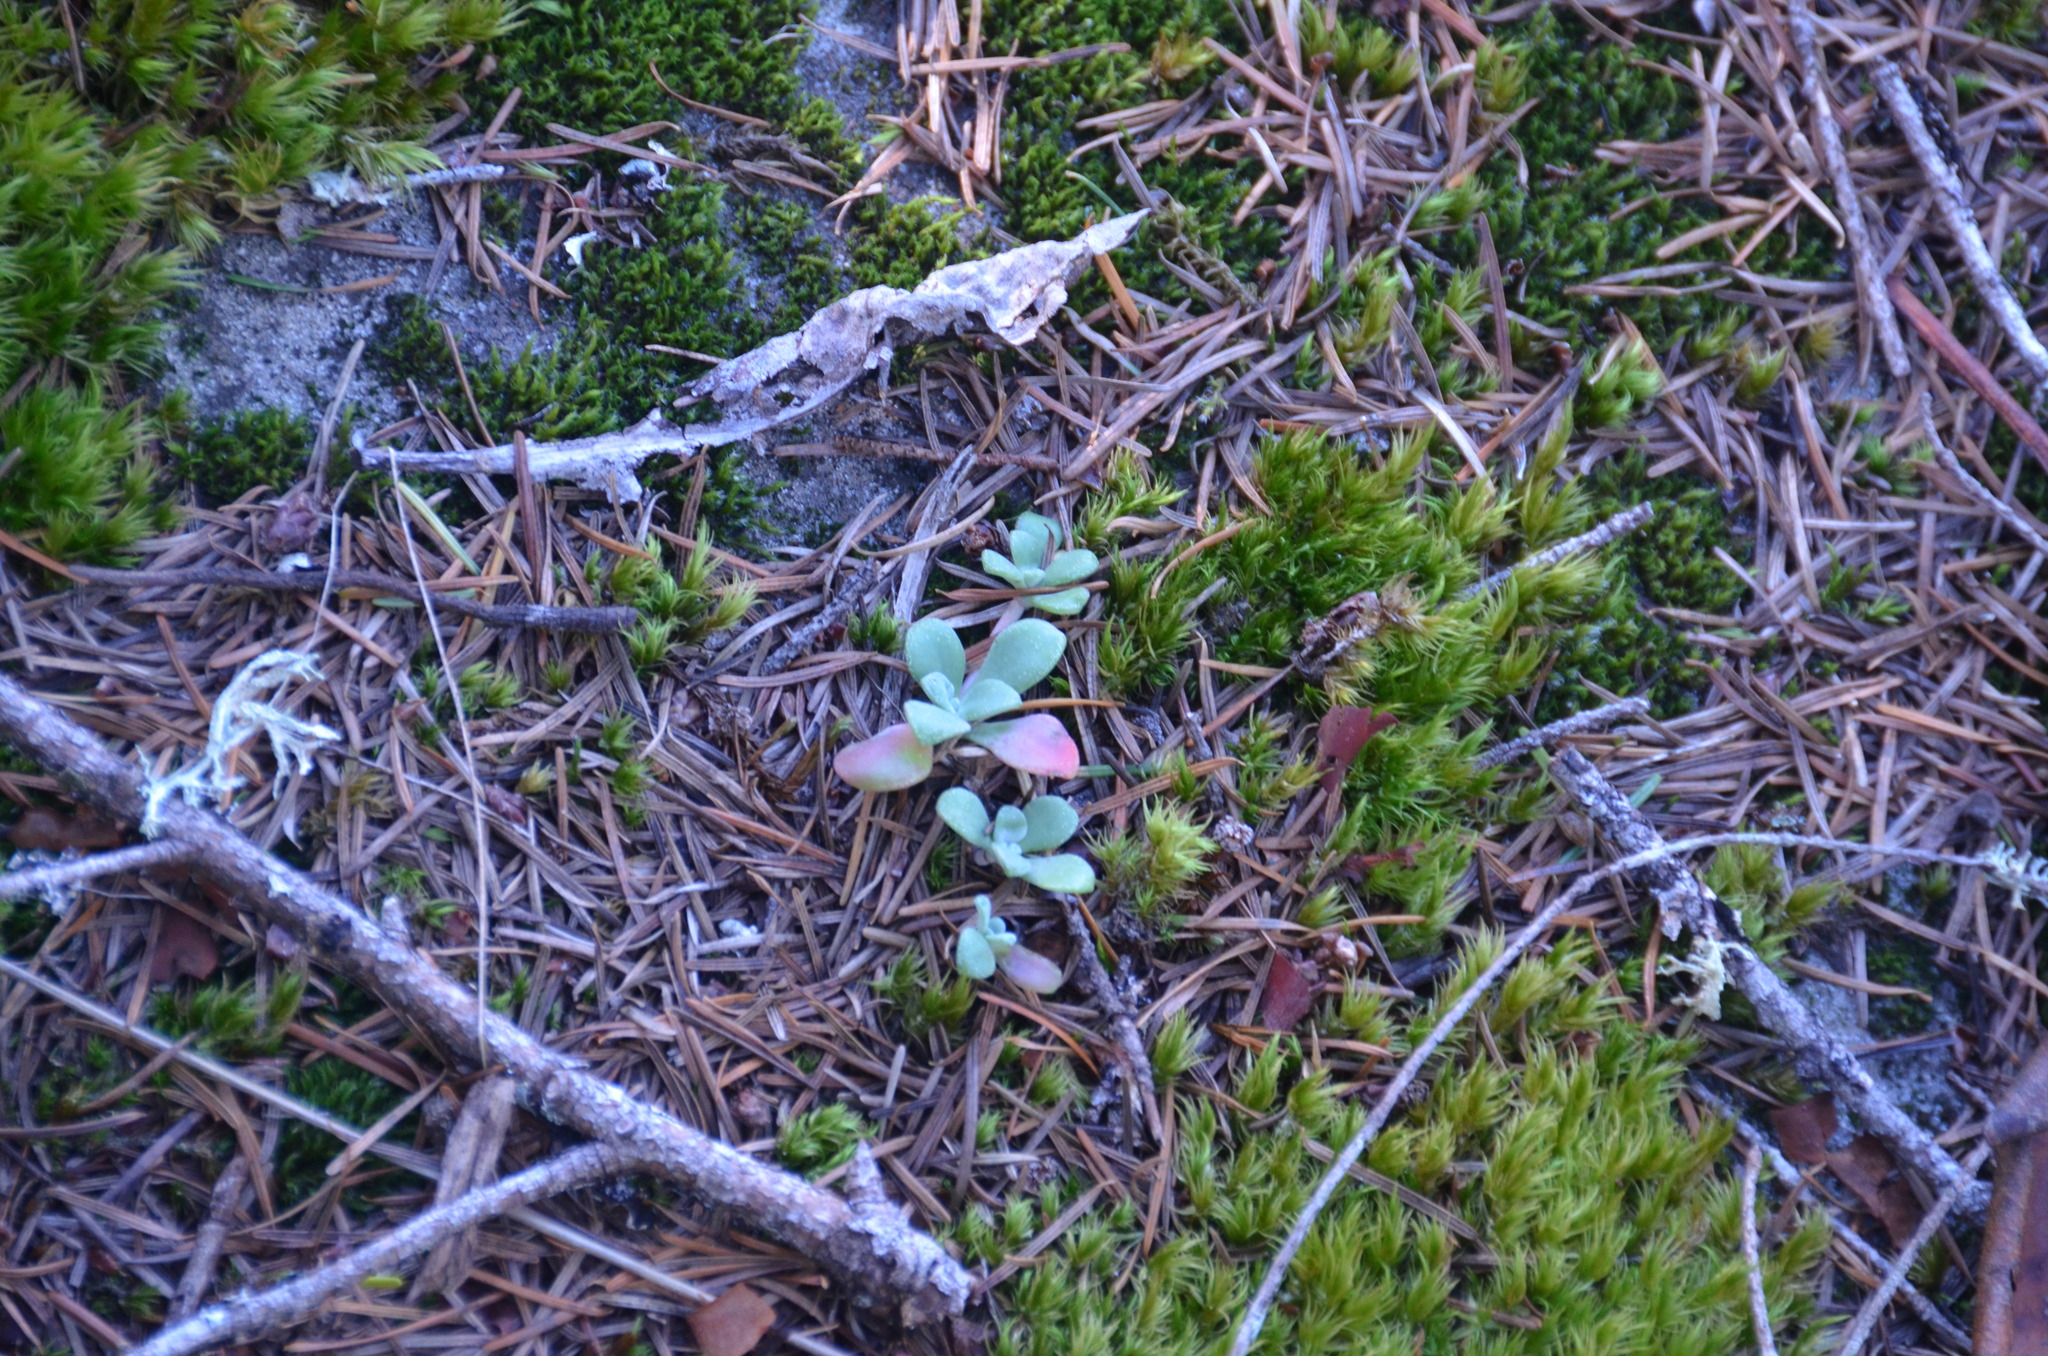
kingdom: Plantae
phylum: Tracheophyta
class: Magnoliopsida
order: Saxifragales
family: Crassulaceae
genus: Sedum
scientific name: Sedum spathulifolium
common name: Colorado stonecrop
